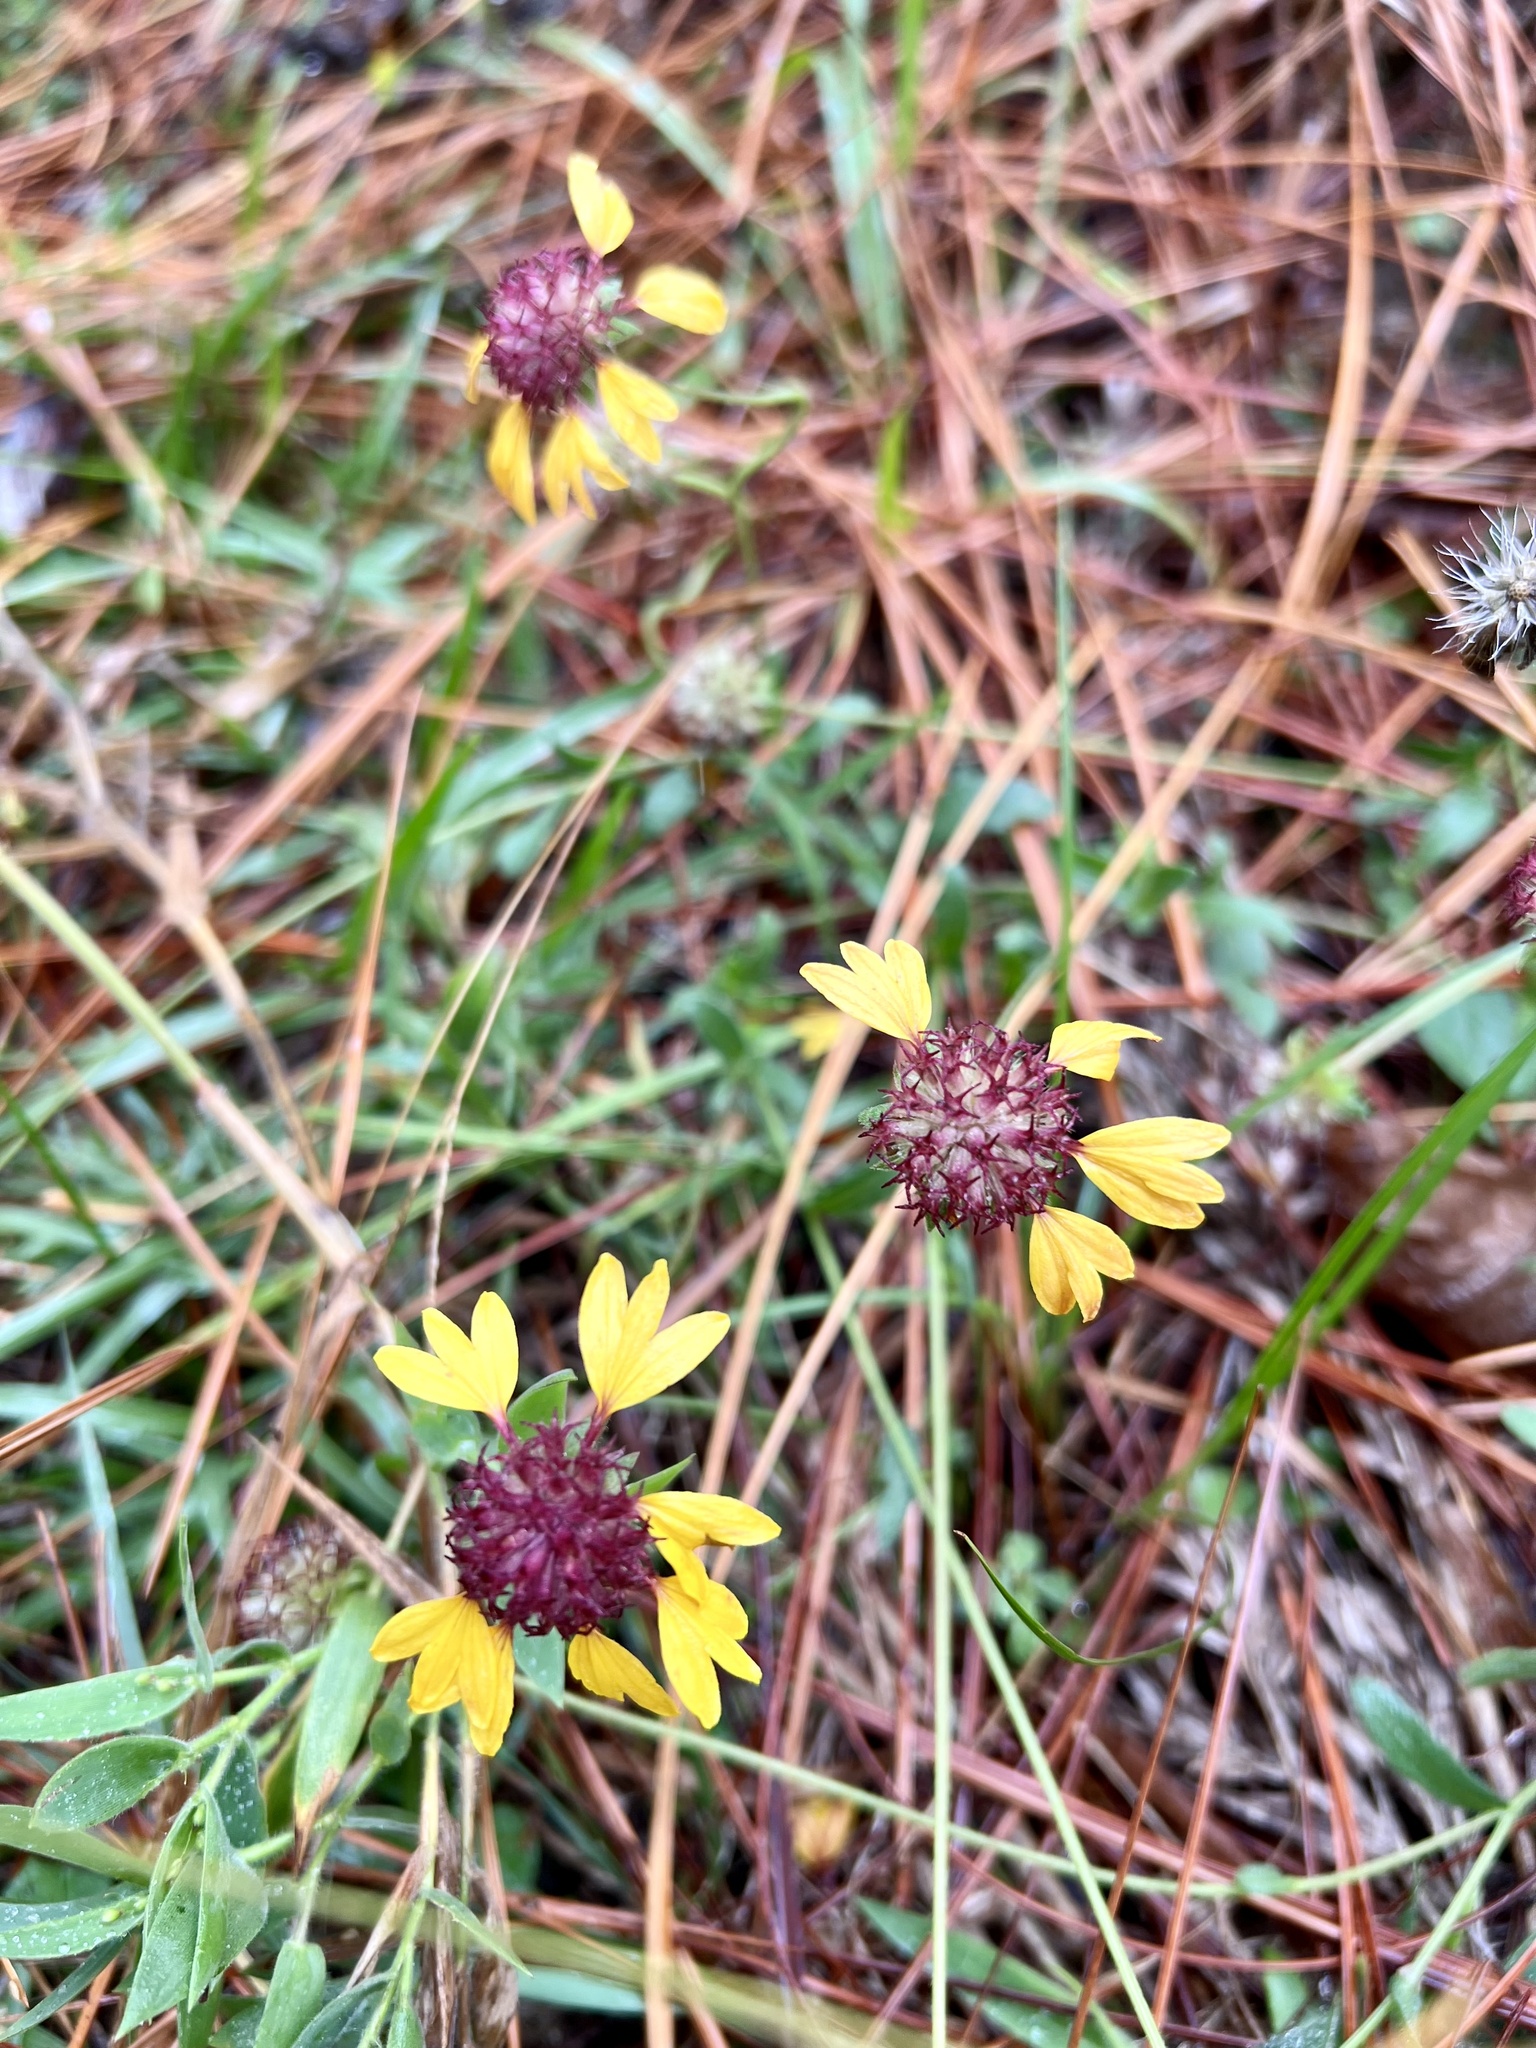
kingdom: Plantae
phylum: Tracheophyta
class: Magnoliopsida
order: Asterales
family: Asteraceae
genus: Gaillardia
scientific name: Gaillardia aestivalis
